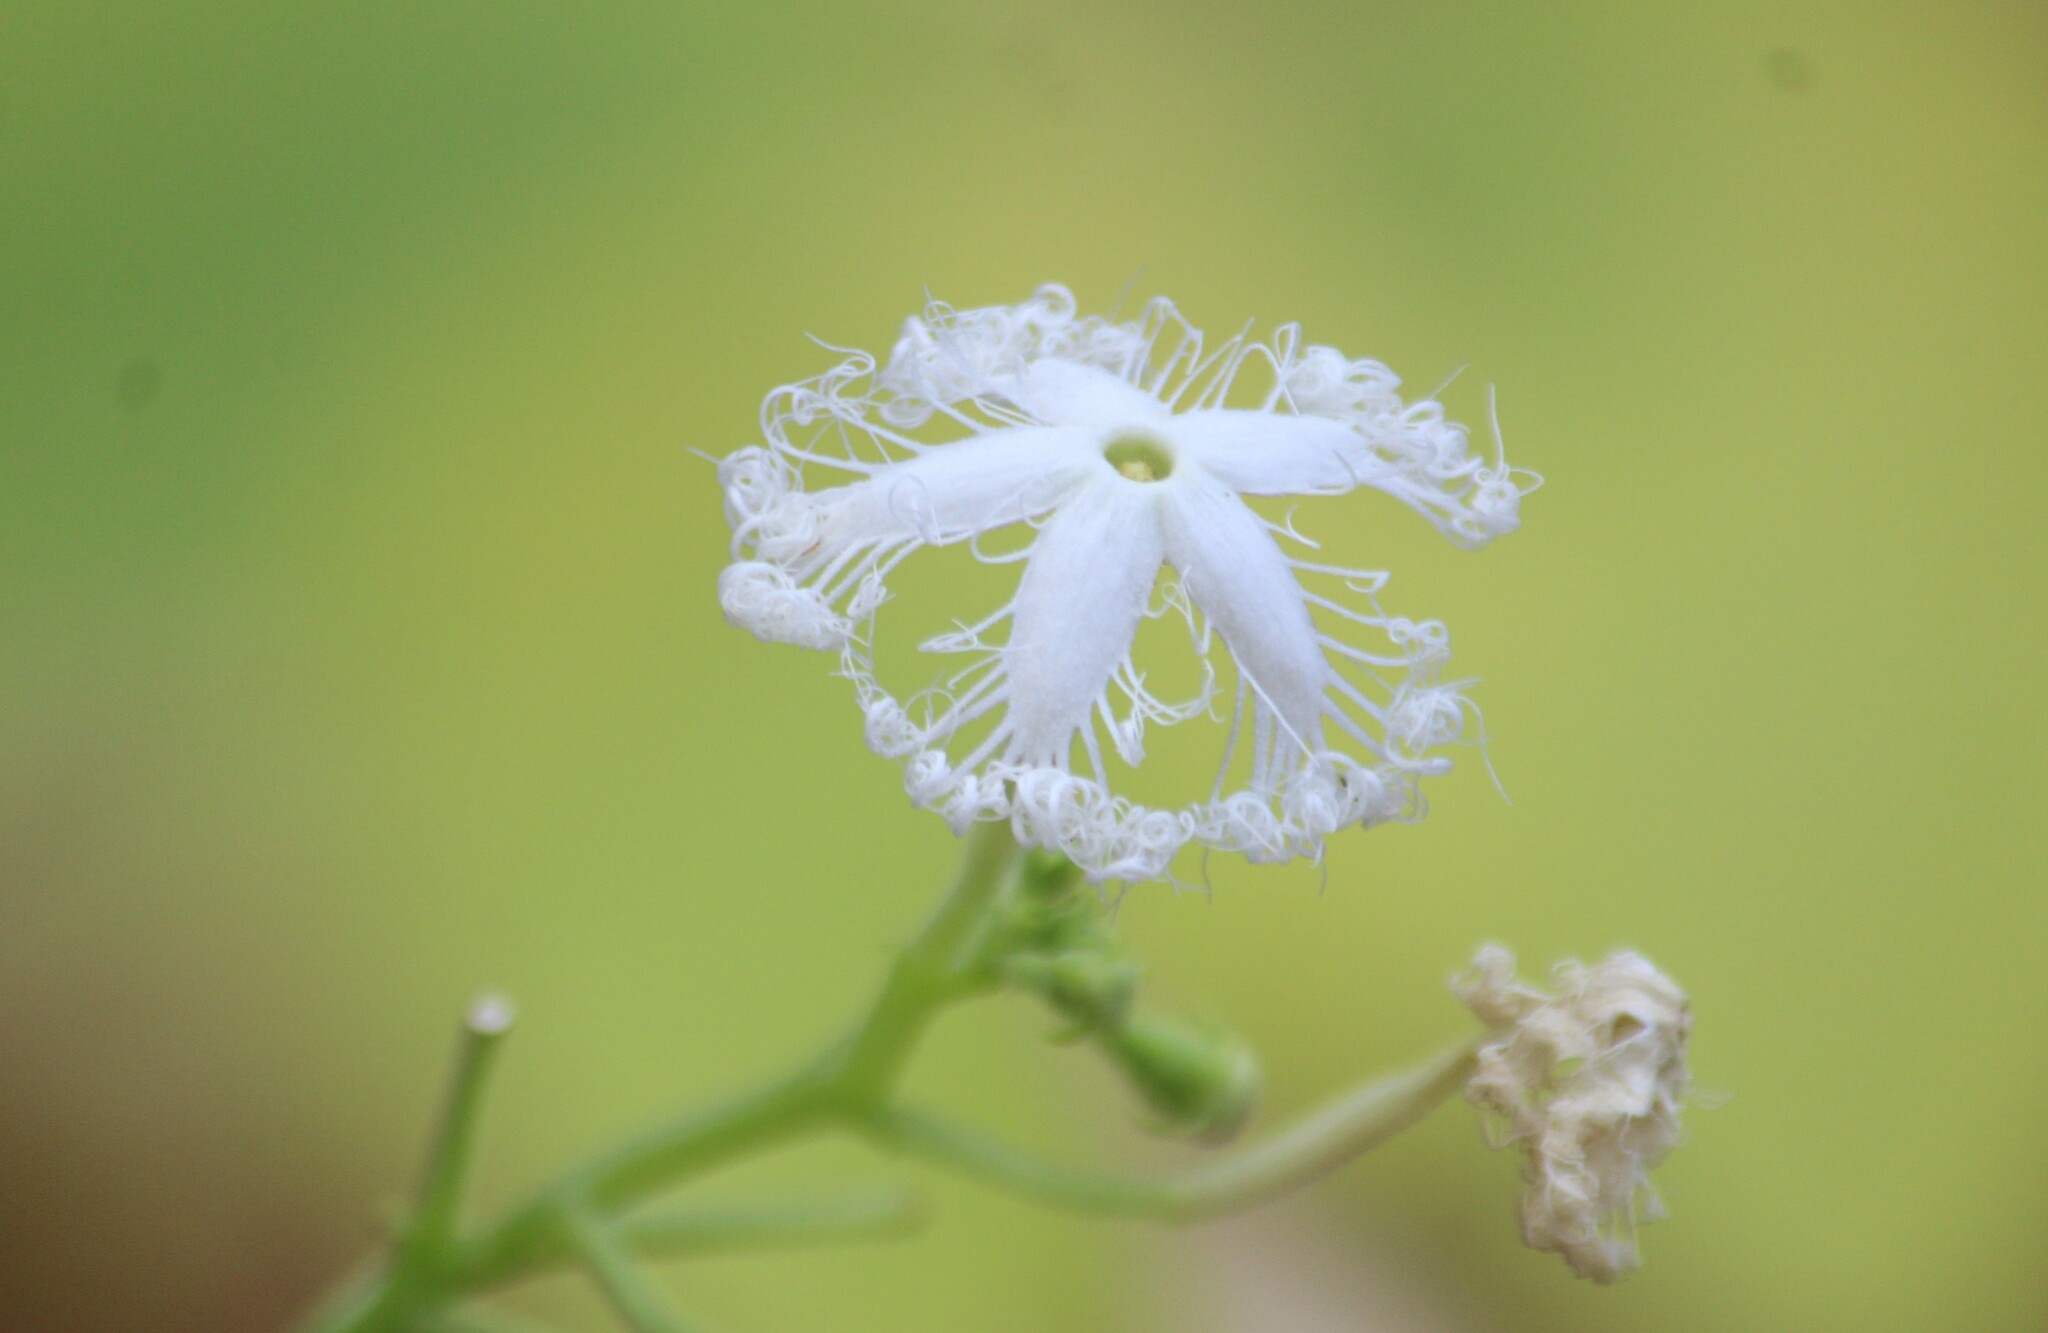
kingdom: Plantae
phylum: Tracheophyta
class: Magnoliopsida
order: Cucurbitales
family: Cucurbitaceae
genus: Trichosanthes
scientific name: Trichosanthes cucumerina
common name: Snakegourd
